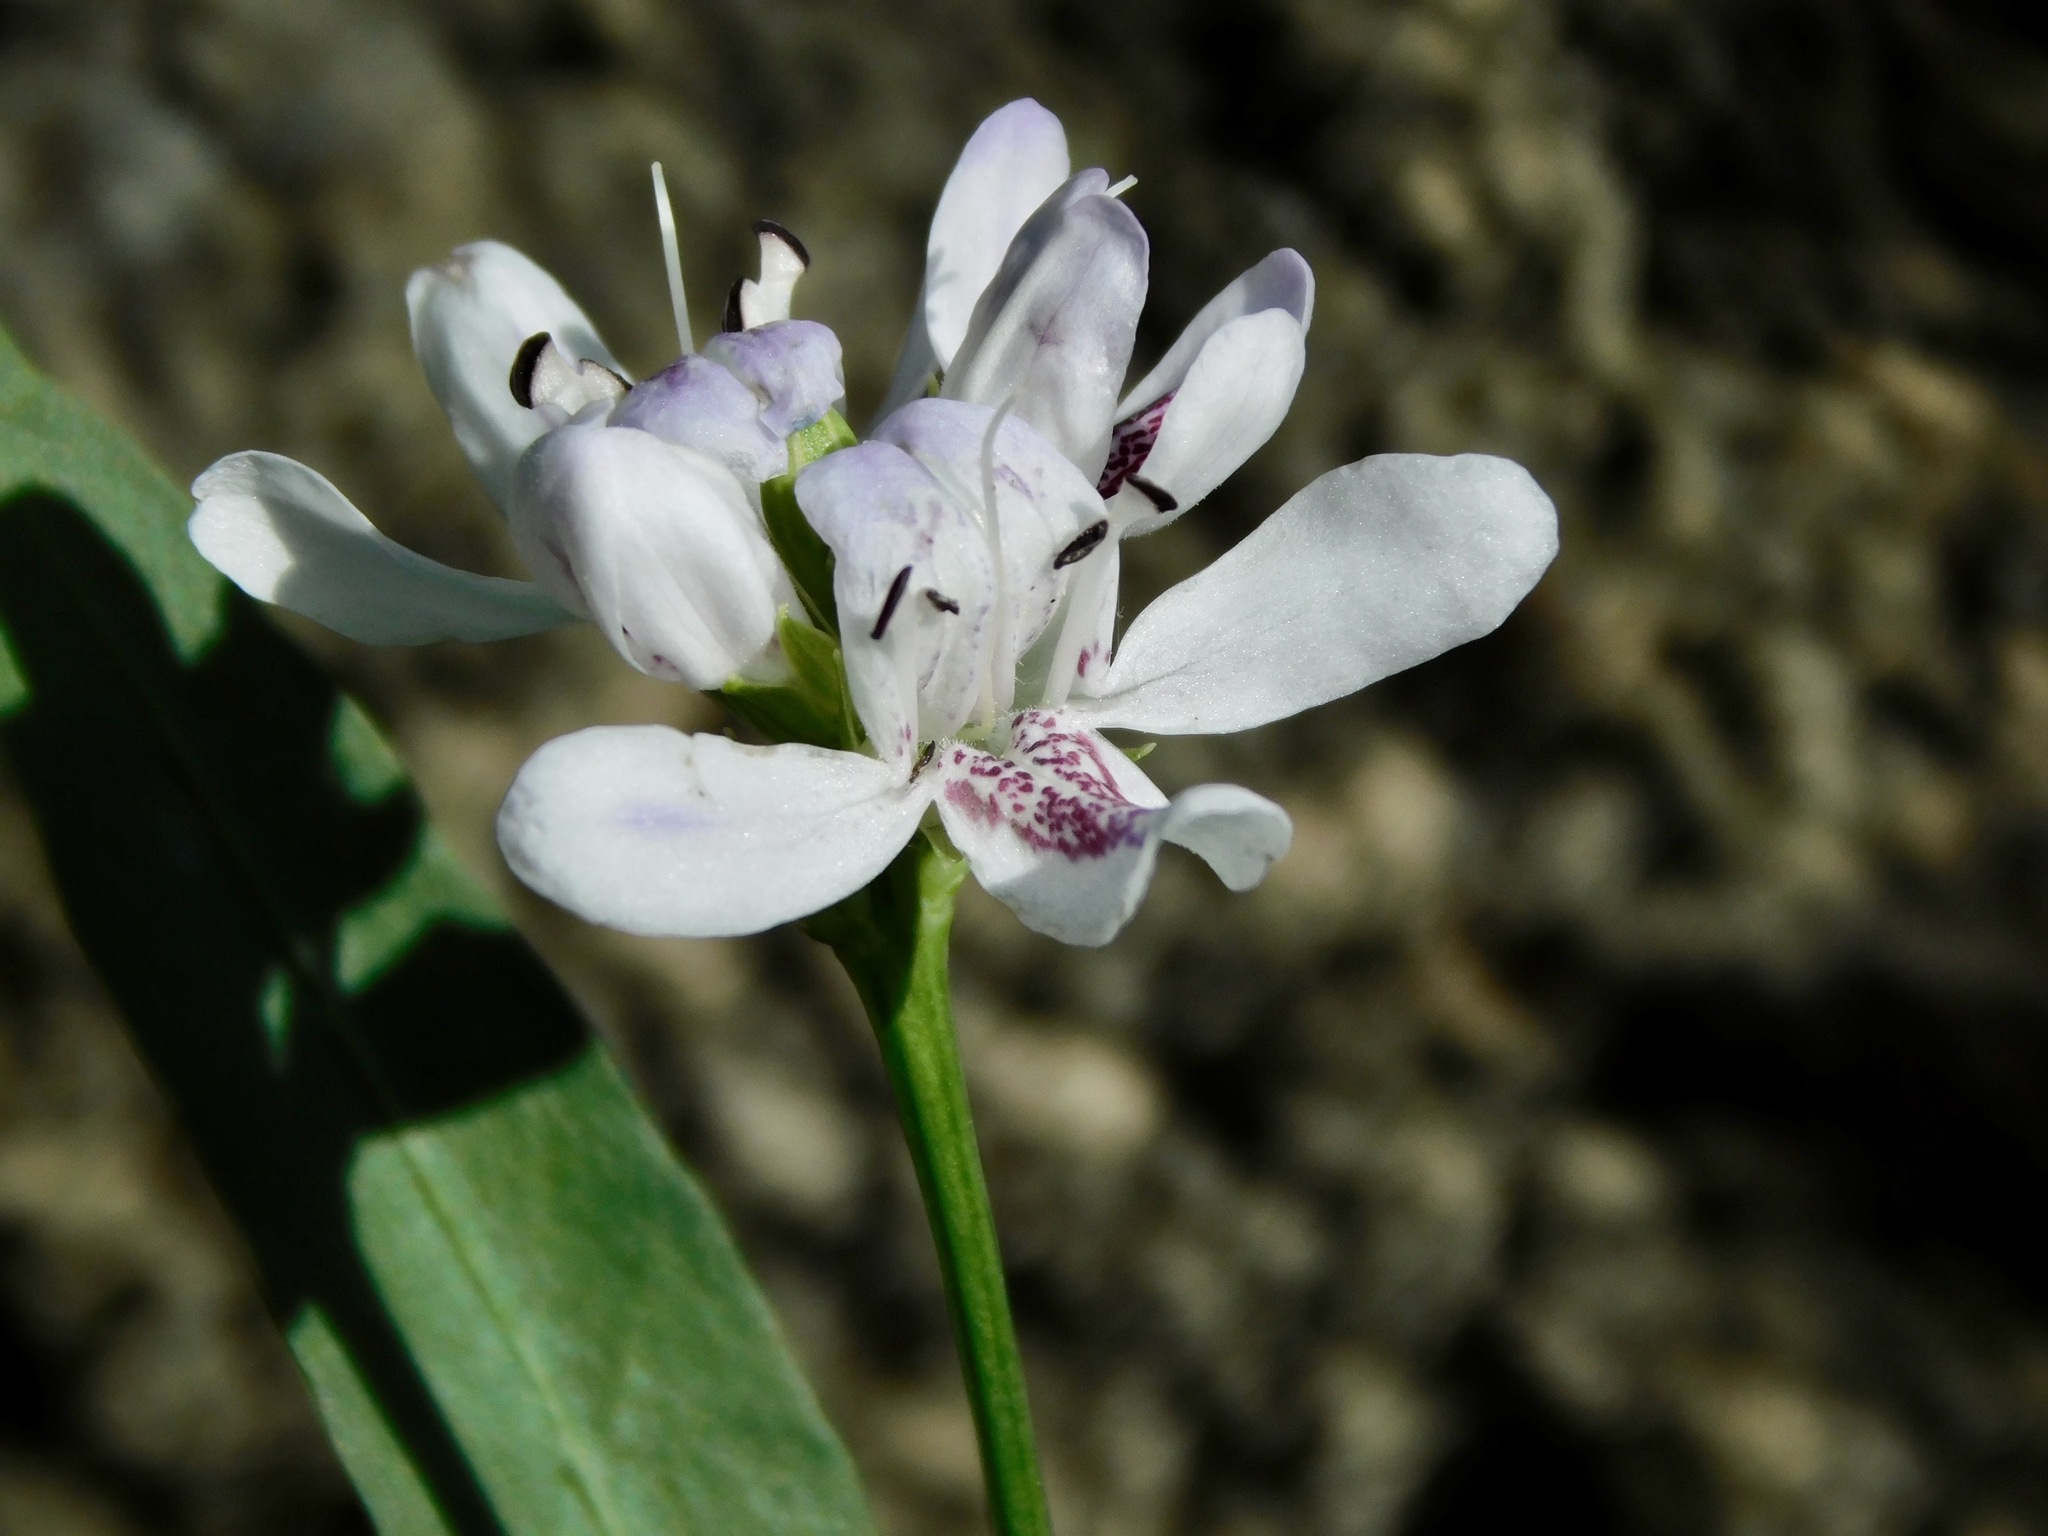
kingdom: Plantae
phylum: Tracheophyta
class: Magnoliopsida
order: Lamiales
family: Acanthaceae
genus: Dianthera
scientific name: Dianthera americana
